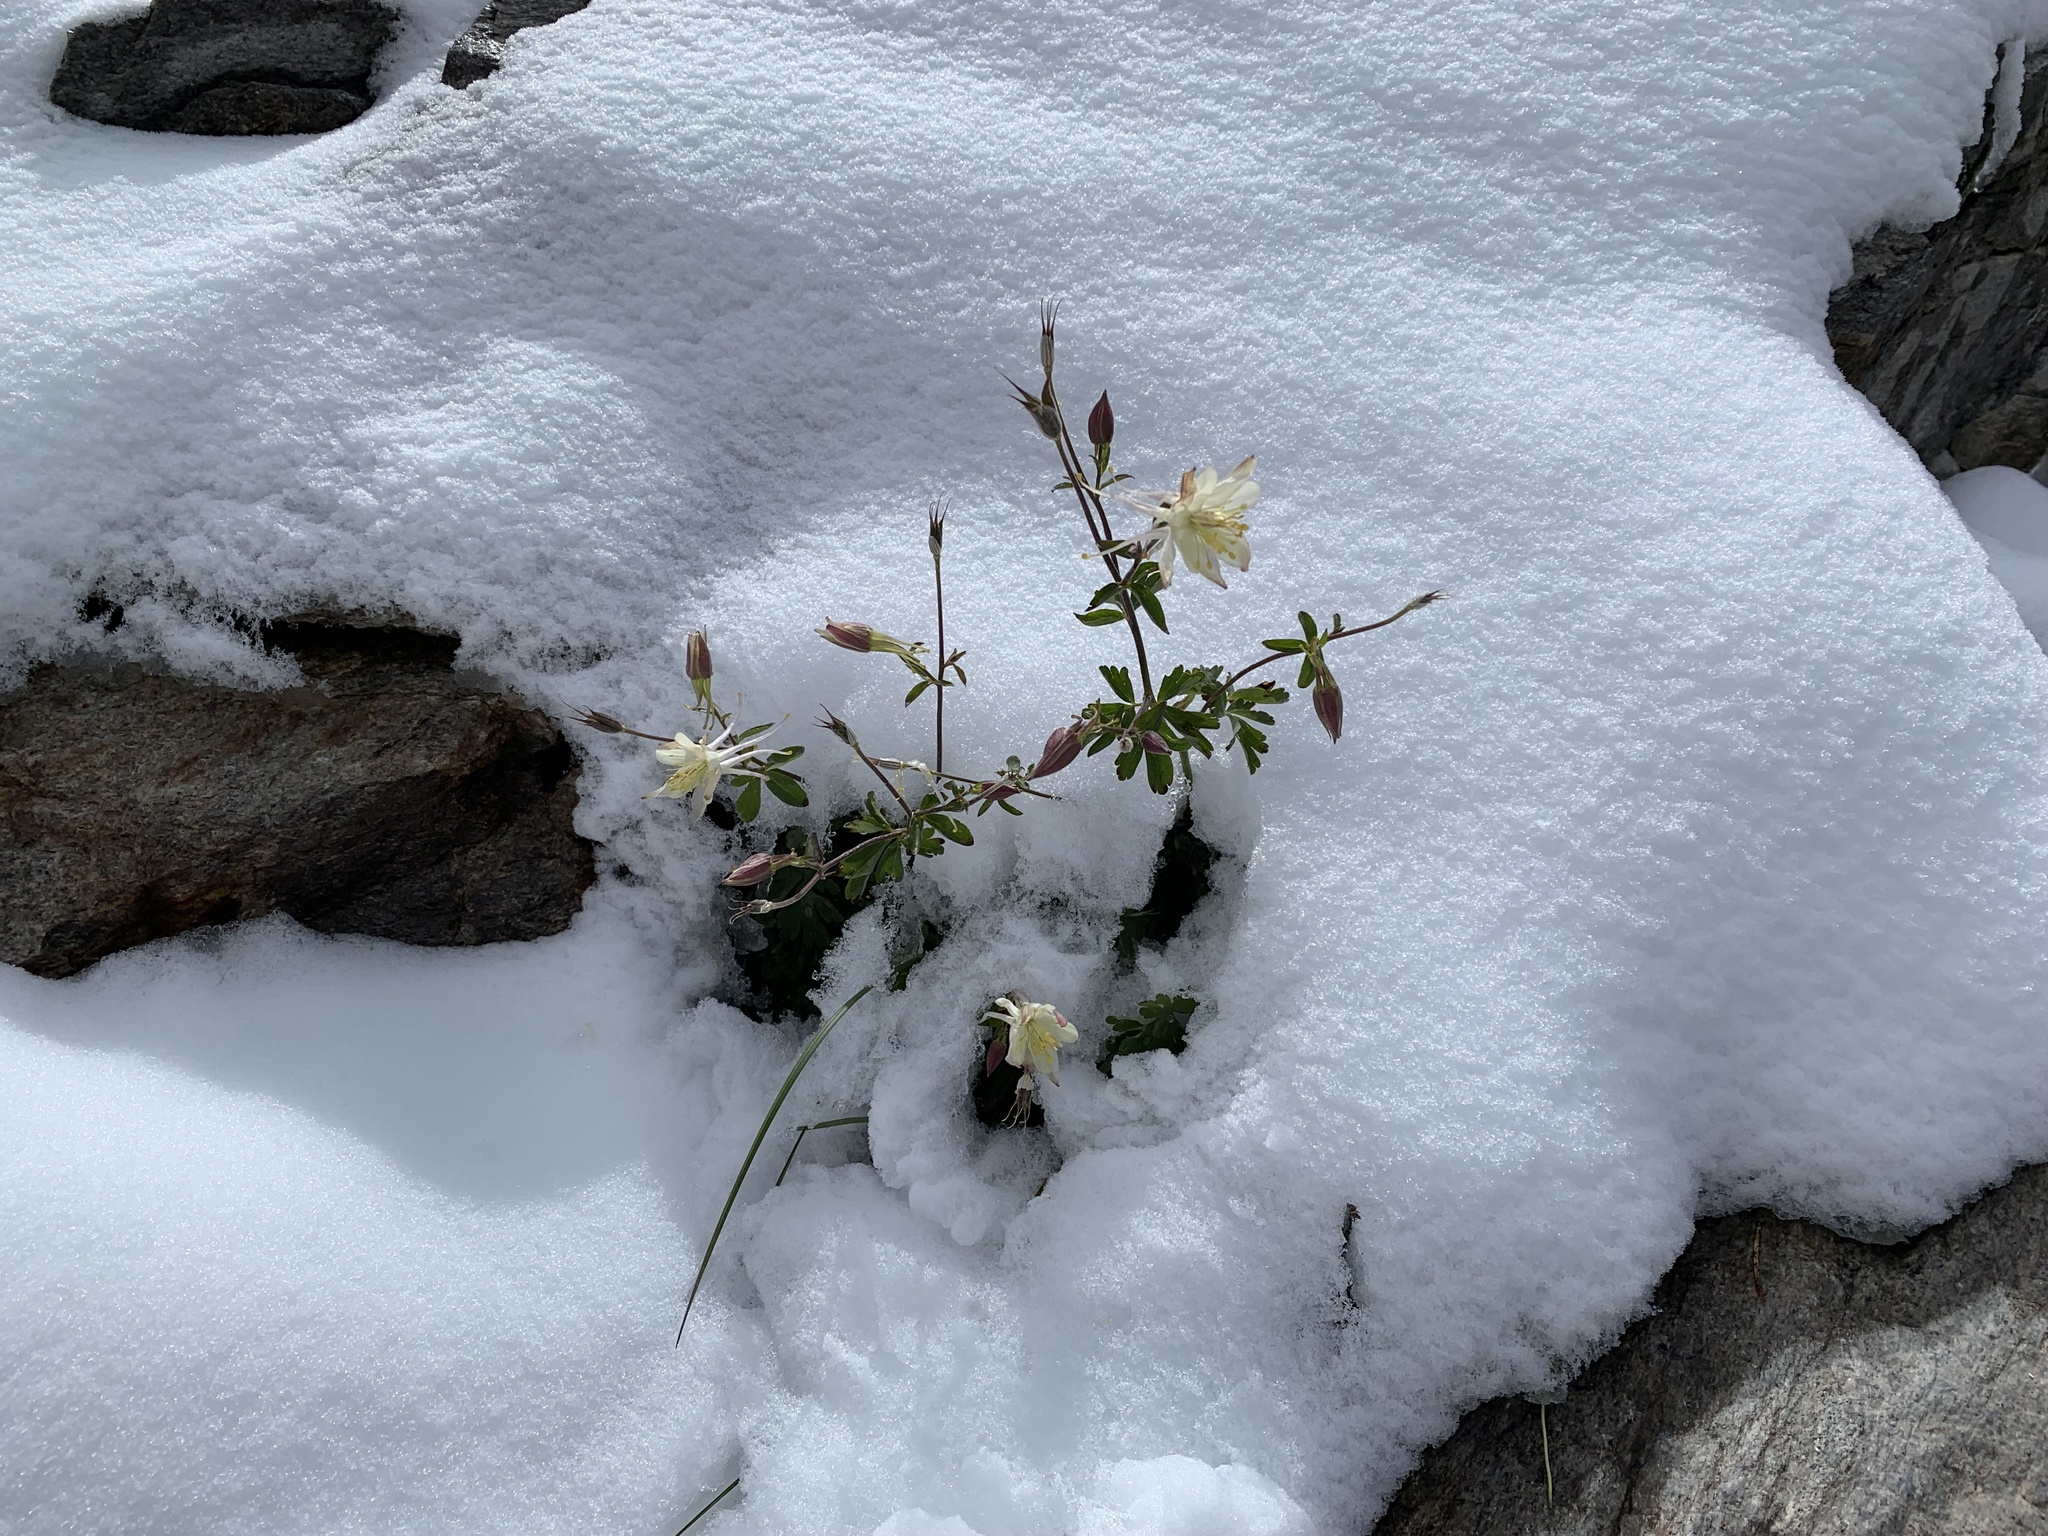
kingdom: Plantae
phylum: Tracheophyta
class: Magnoliopsida
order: Ranunculales
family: Ranunculaceae
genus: Aquilegia
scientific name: Aquilegia pubescens
